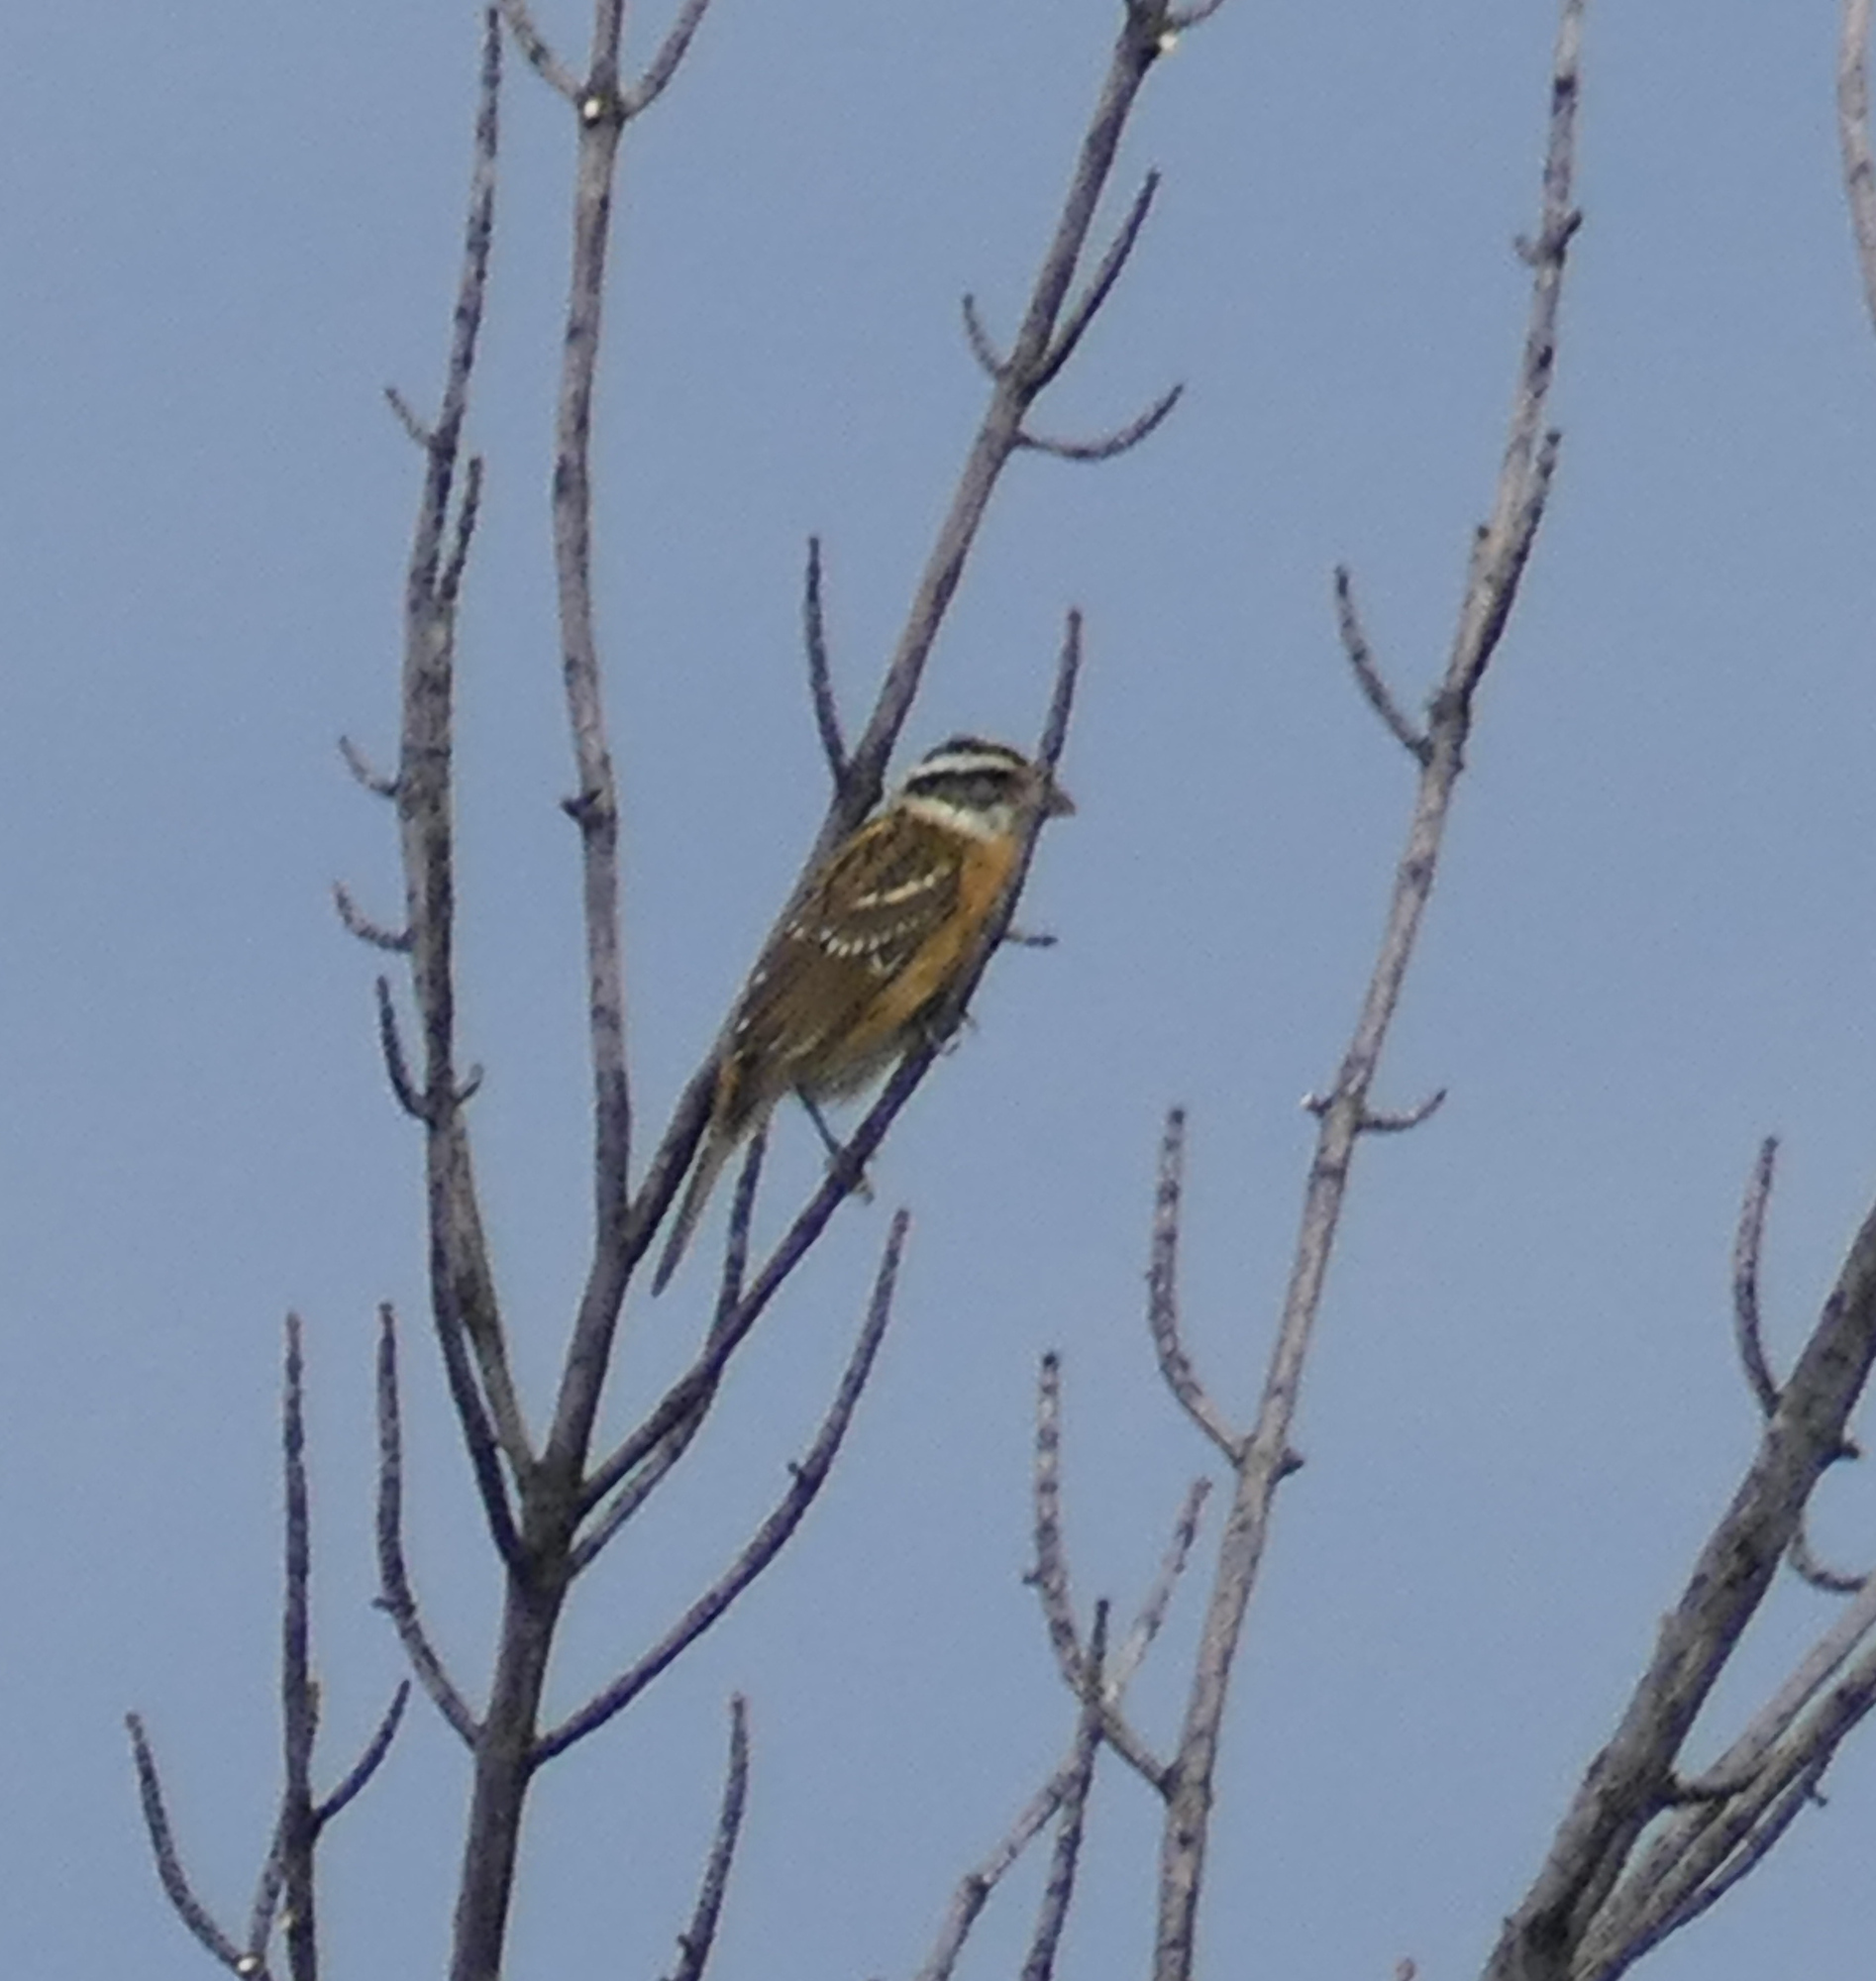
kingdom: Animalia
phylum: Chordata
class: Aves
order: Passeriformes
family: Cardinalidae
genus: Pheucticus
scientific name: Pheucticus melanocephalus
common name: Black-headed grosbeak
